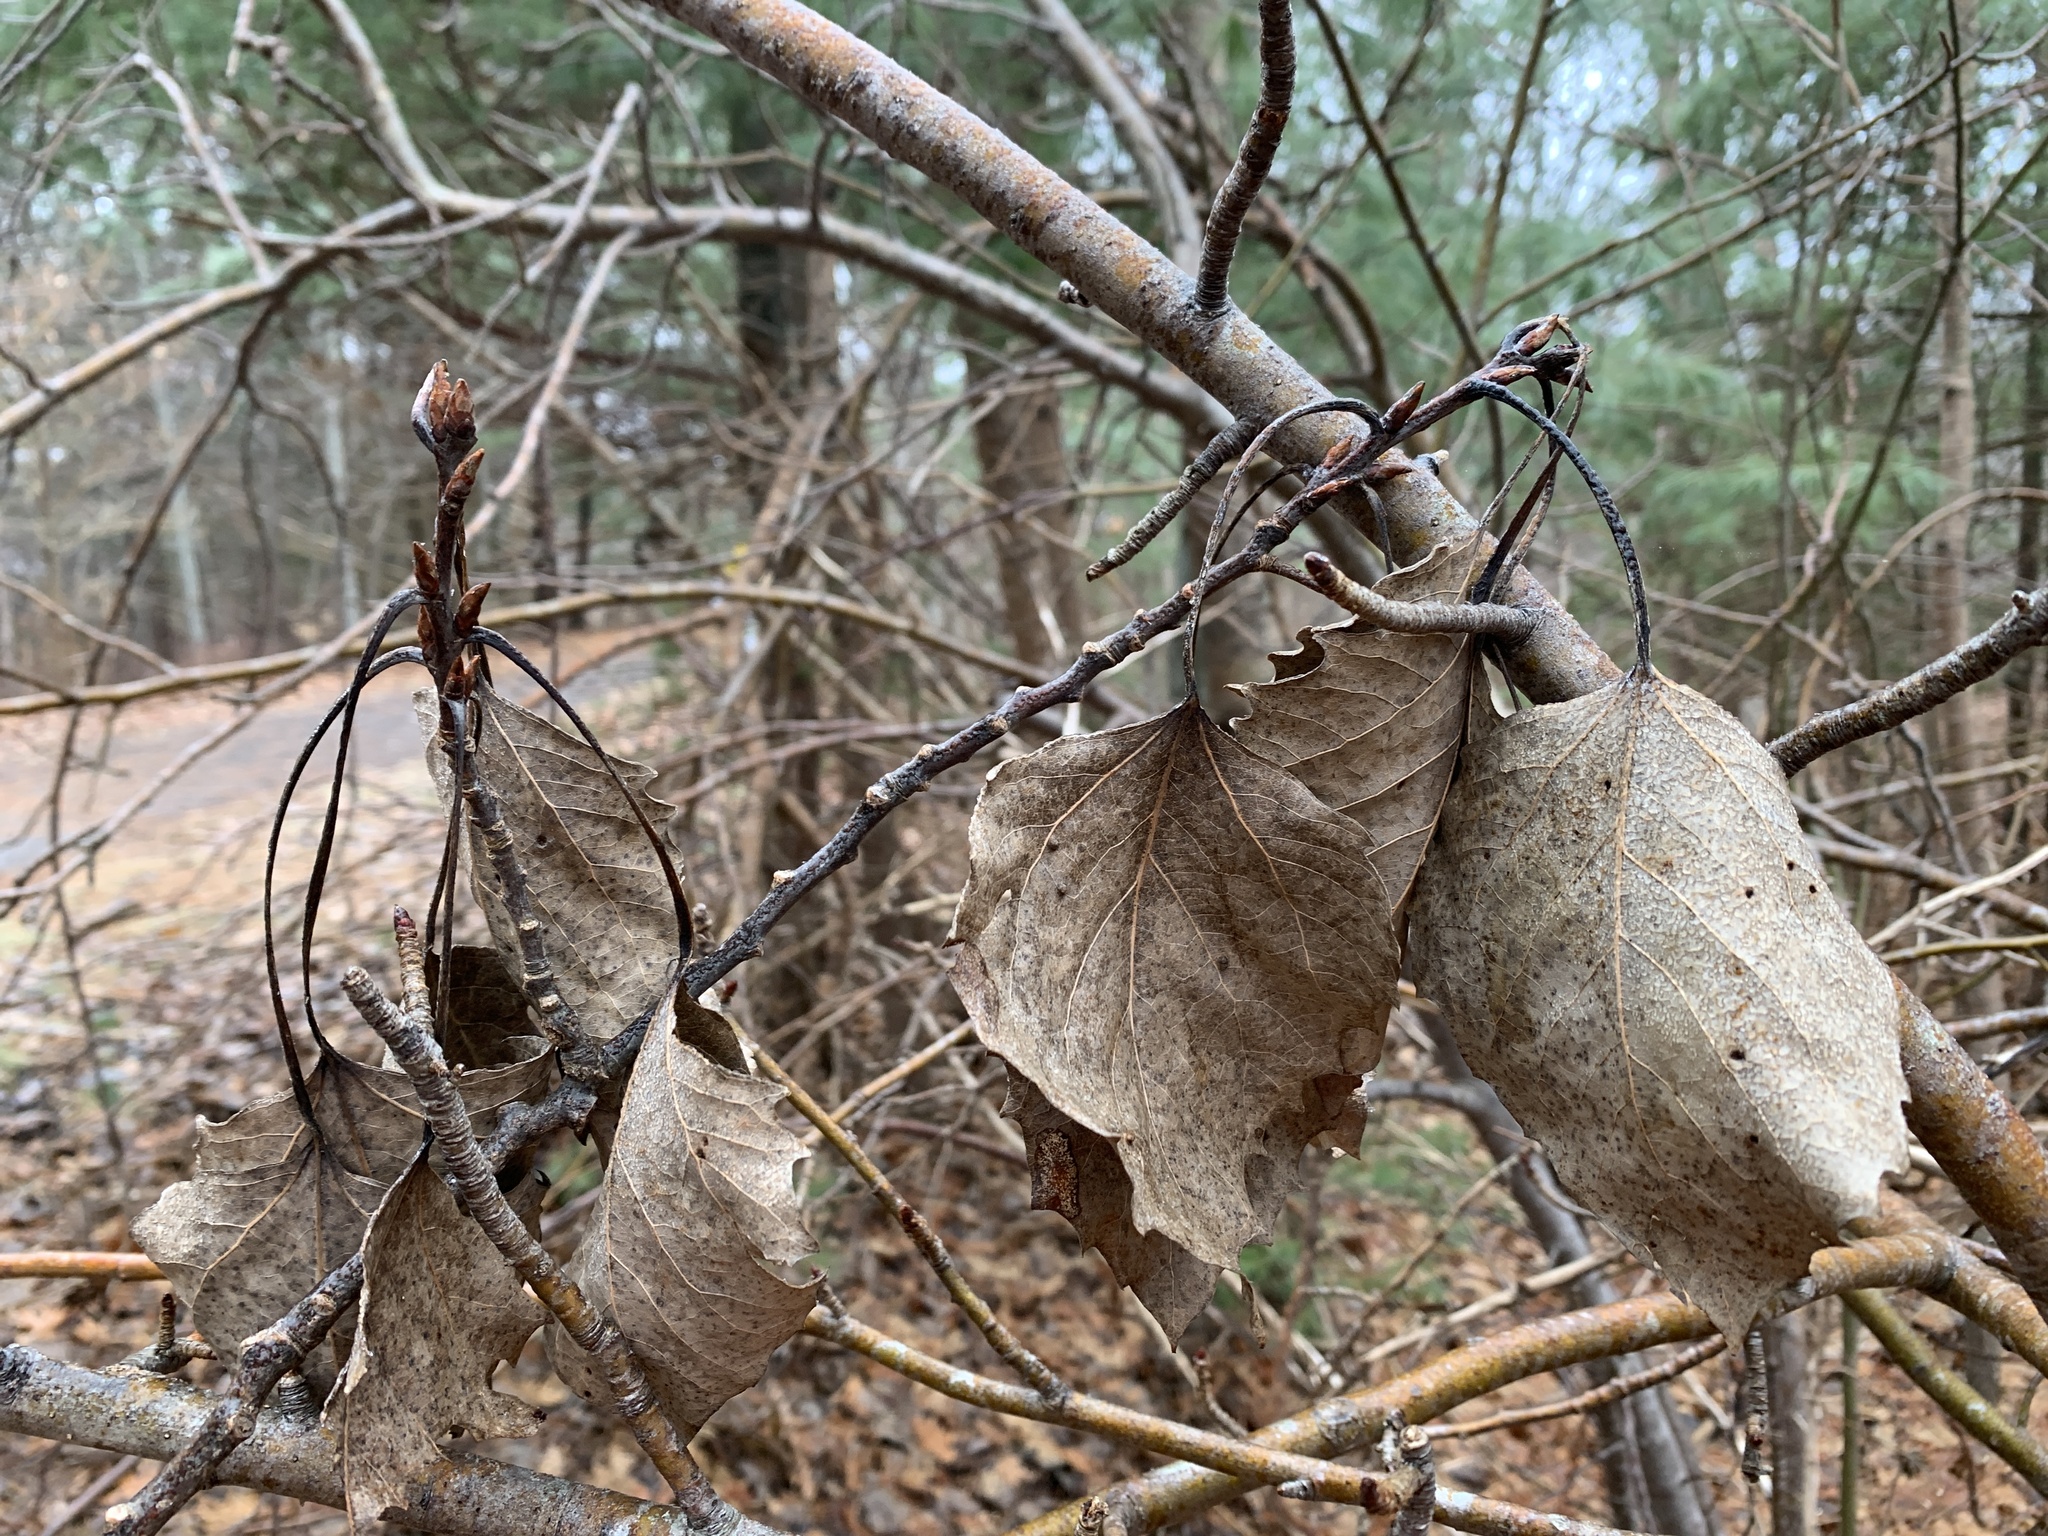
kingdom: Plantae
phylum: Tracheophyta
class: Magnoliopsida
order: Malpighiales
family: Salicaceae
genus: Populus
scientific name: Populus grandidentata
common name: Bigtooth aspen
